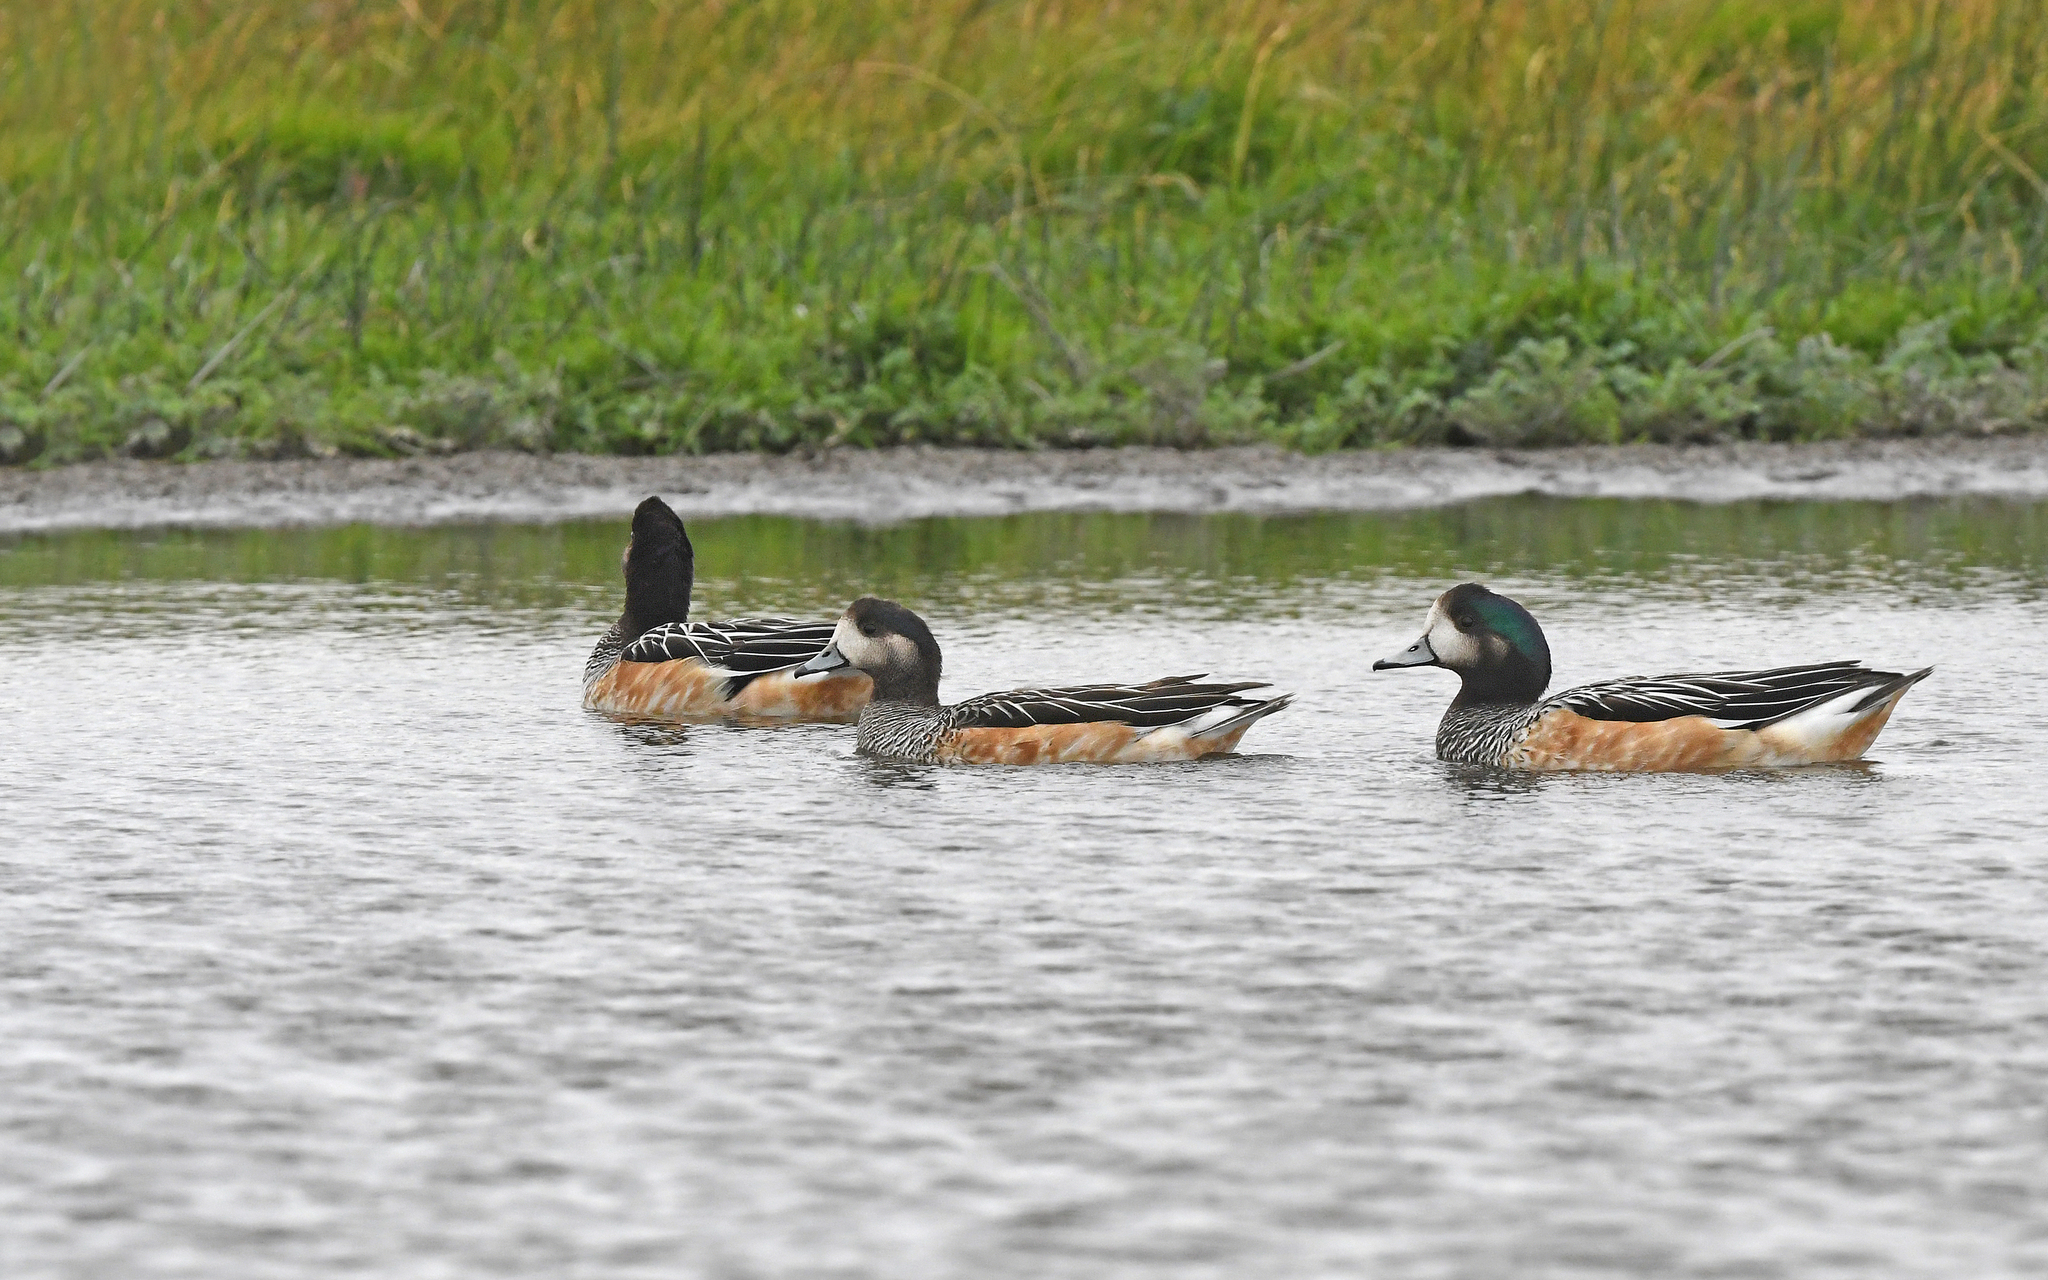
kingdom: Animalia
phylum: Chordata
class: Aves
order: Anseriformes
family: Anatidae
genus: Mareca
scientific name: Mareca sibilatrix
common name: Chiloe wigeon
